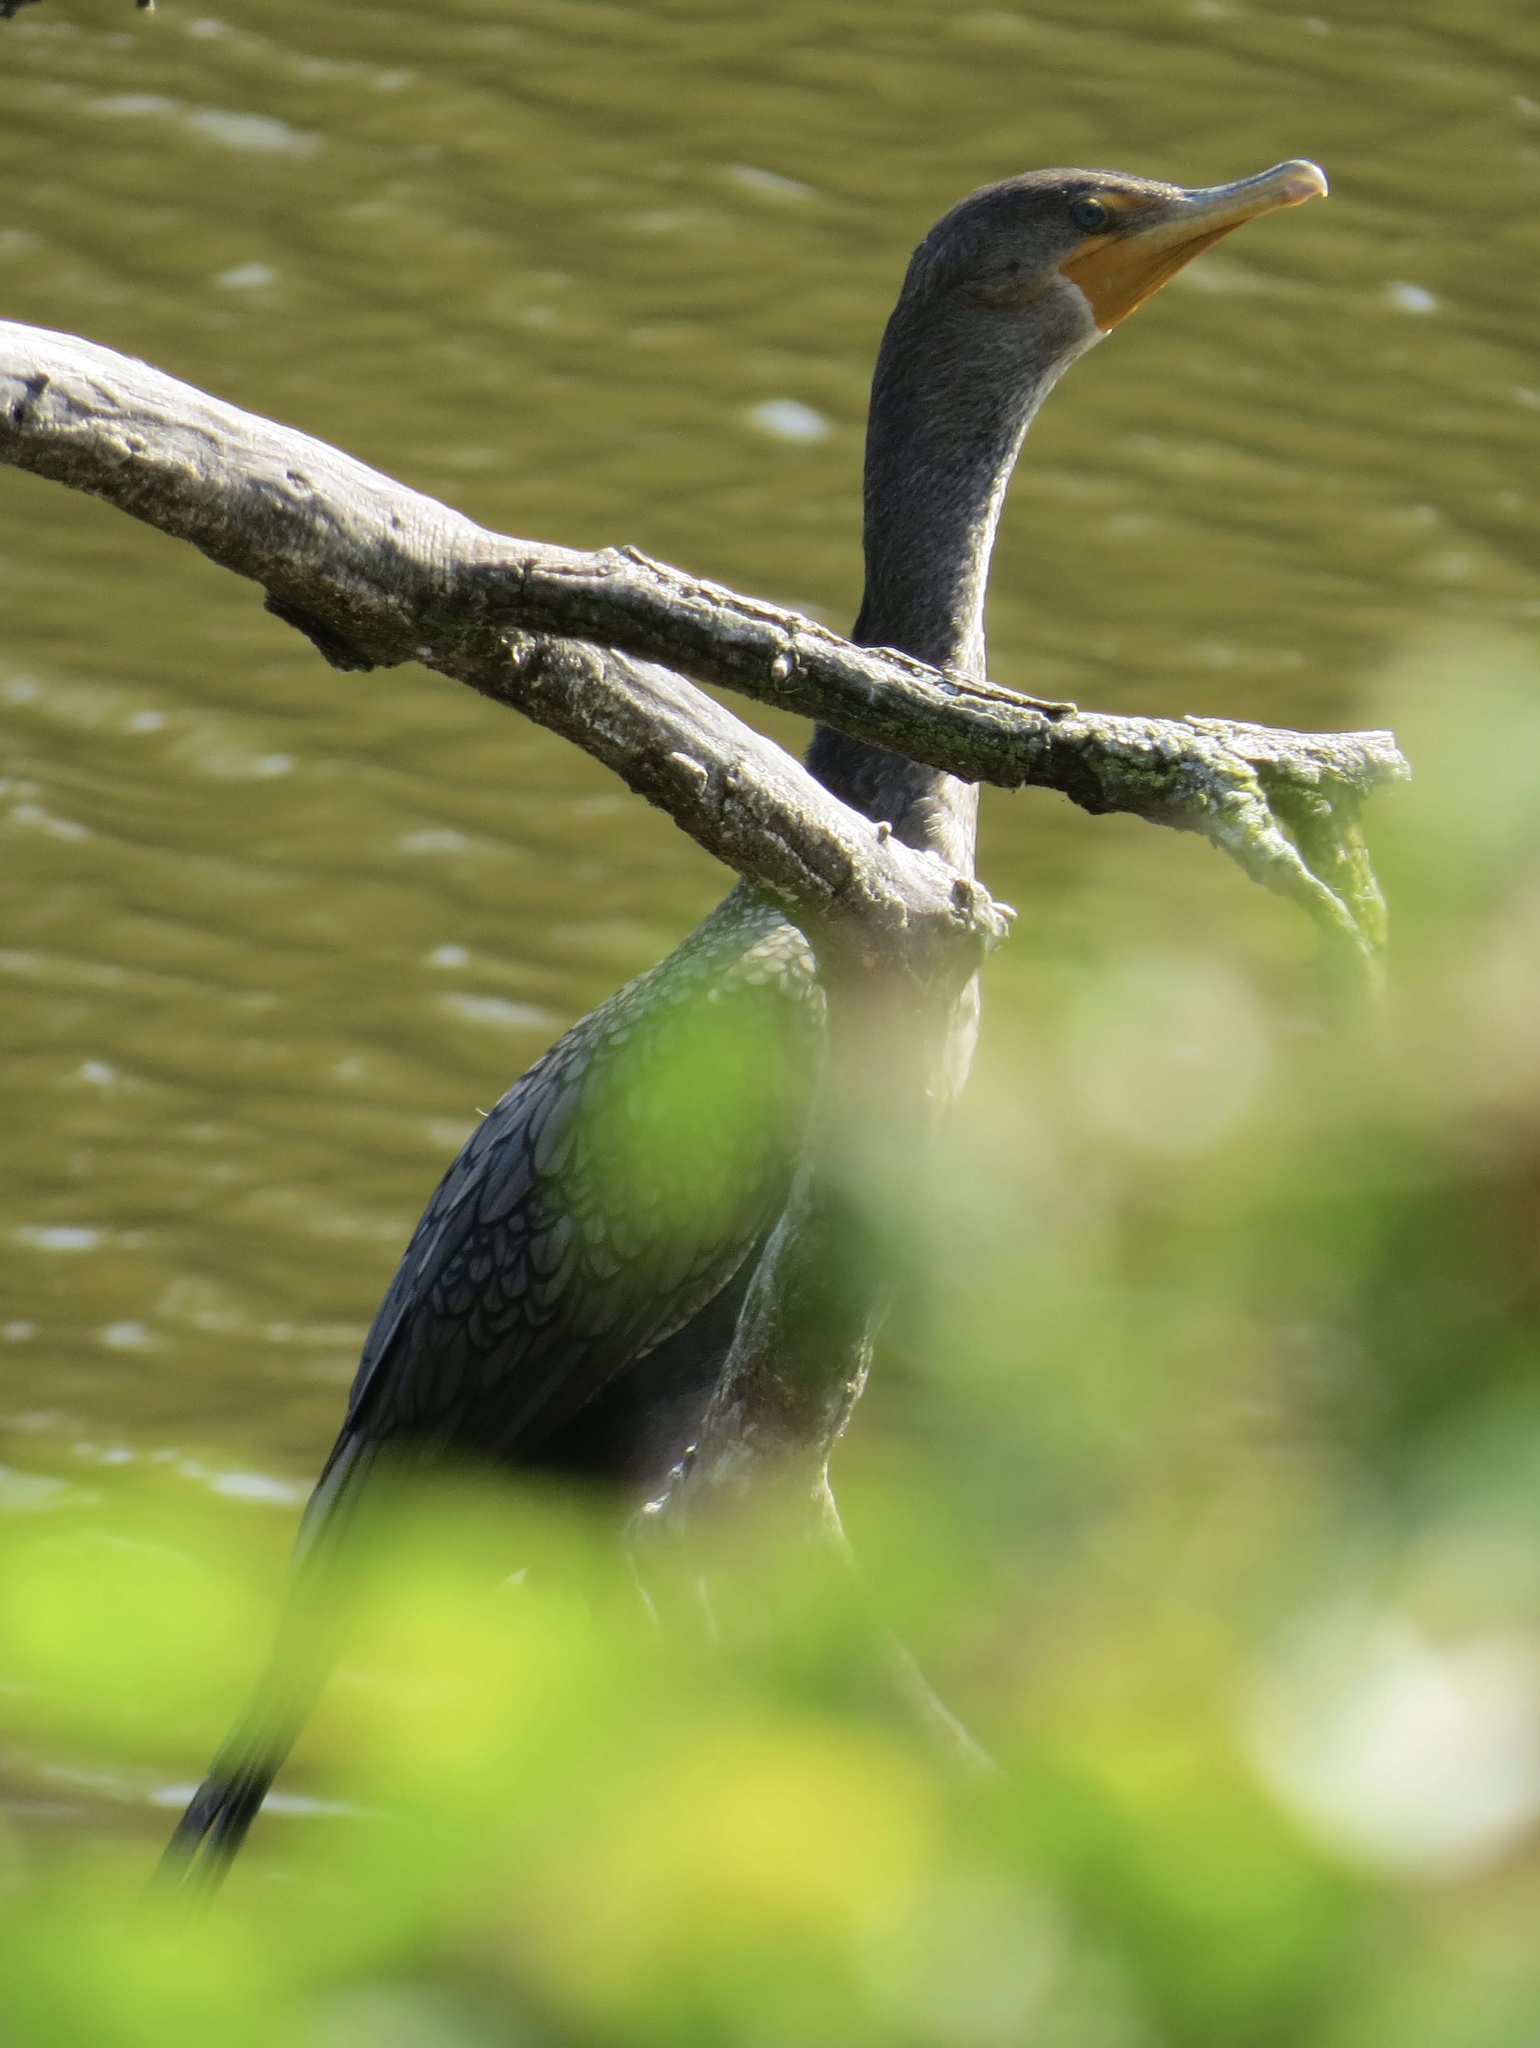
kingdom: Animalia
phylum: Chordata
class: Aves
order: Suliformes
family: Phalacrocoracidae
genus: Phalacrocorax
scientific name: Phalacrocorax auritus
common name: Double-crested cormorant
